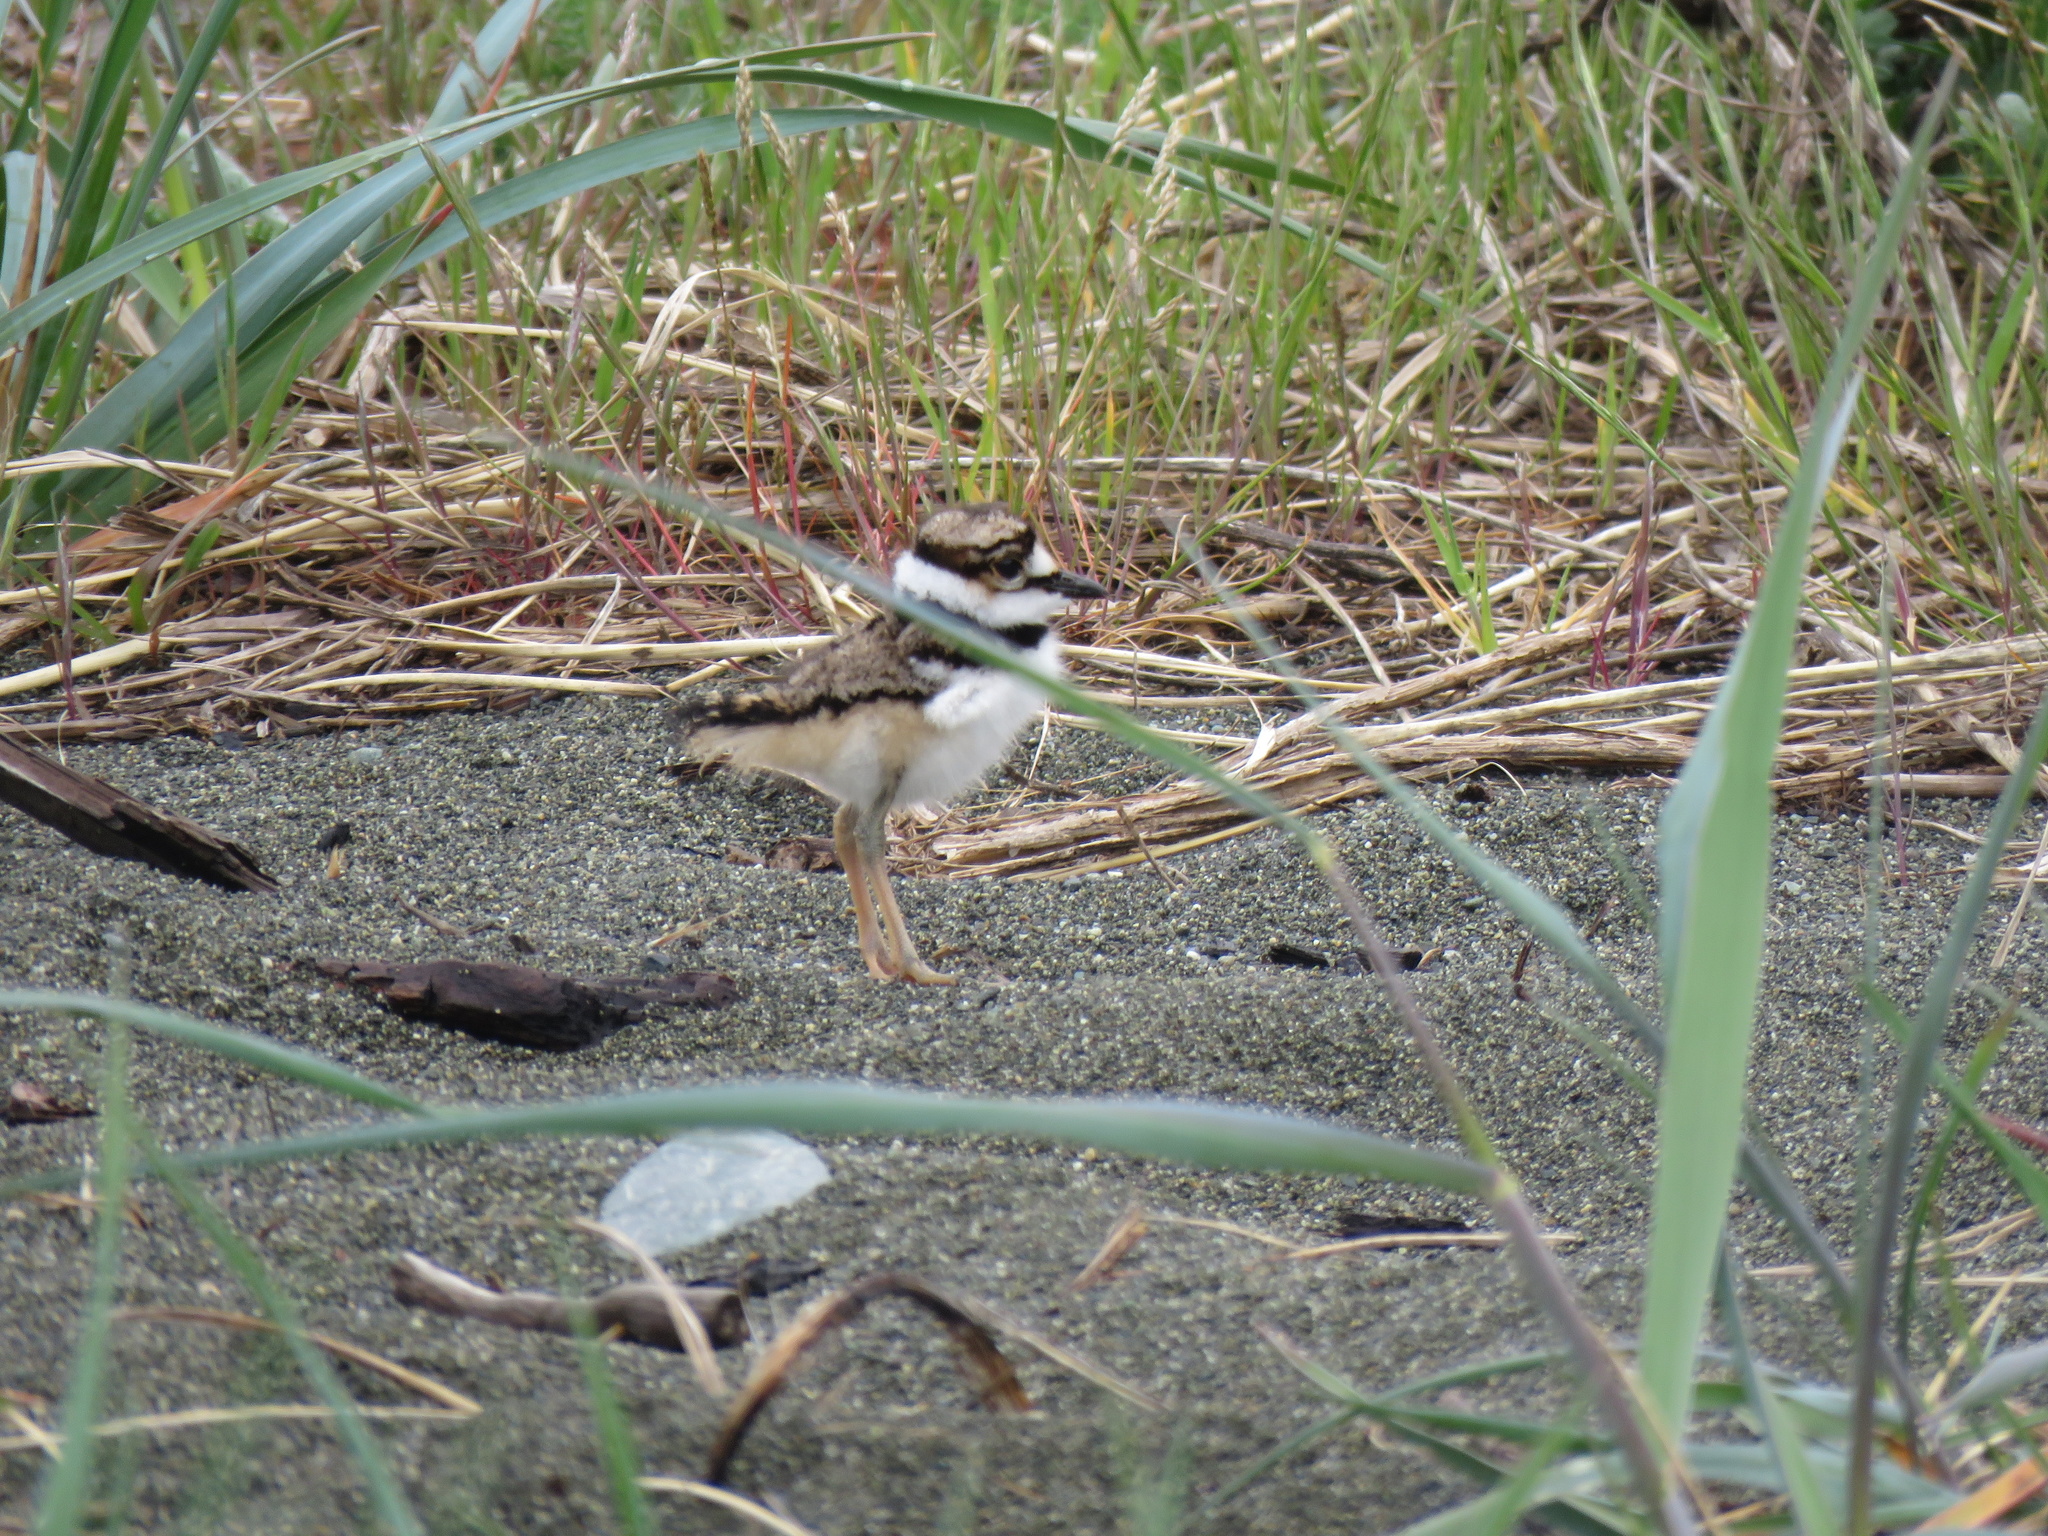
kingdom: Animalia
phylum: Chordata
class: Aves
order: Charadriiformes
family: Charadriidae
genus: Charadrius
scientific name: Charadrius vociferus
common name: Killdeer
